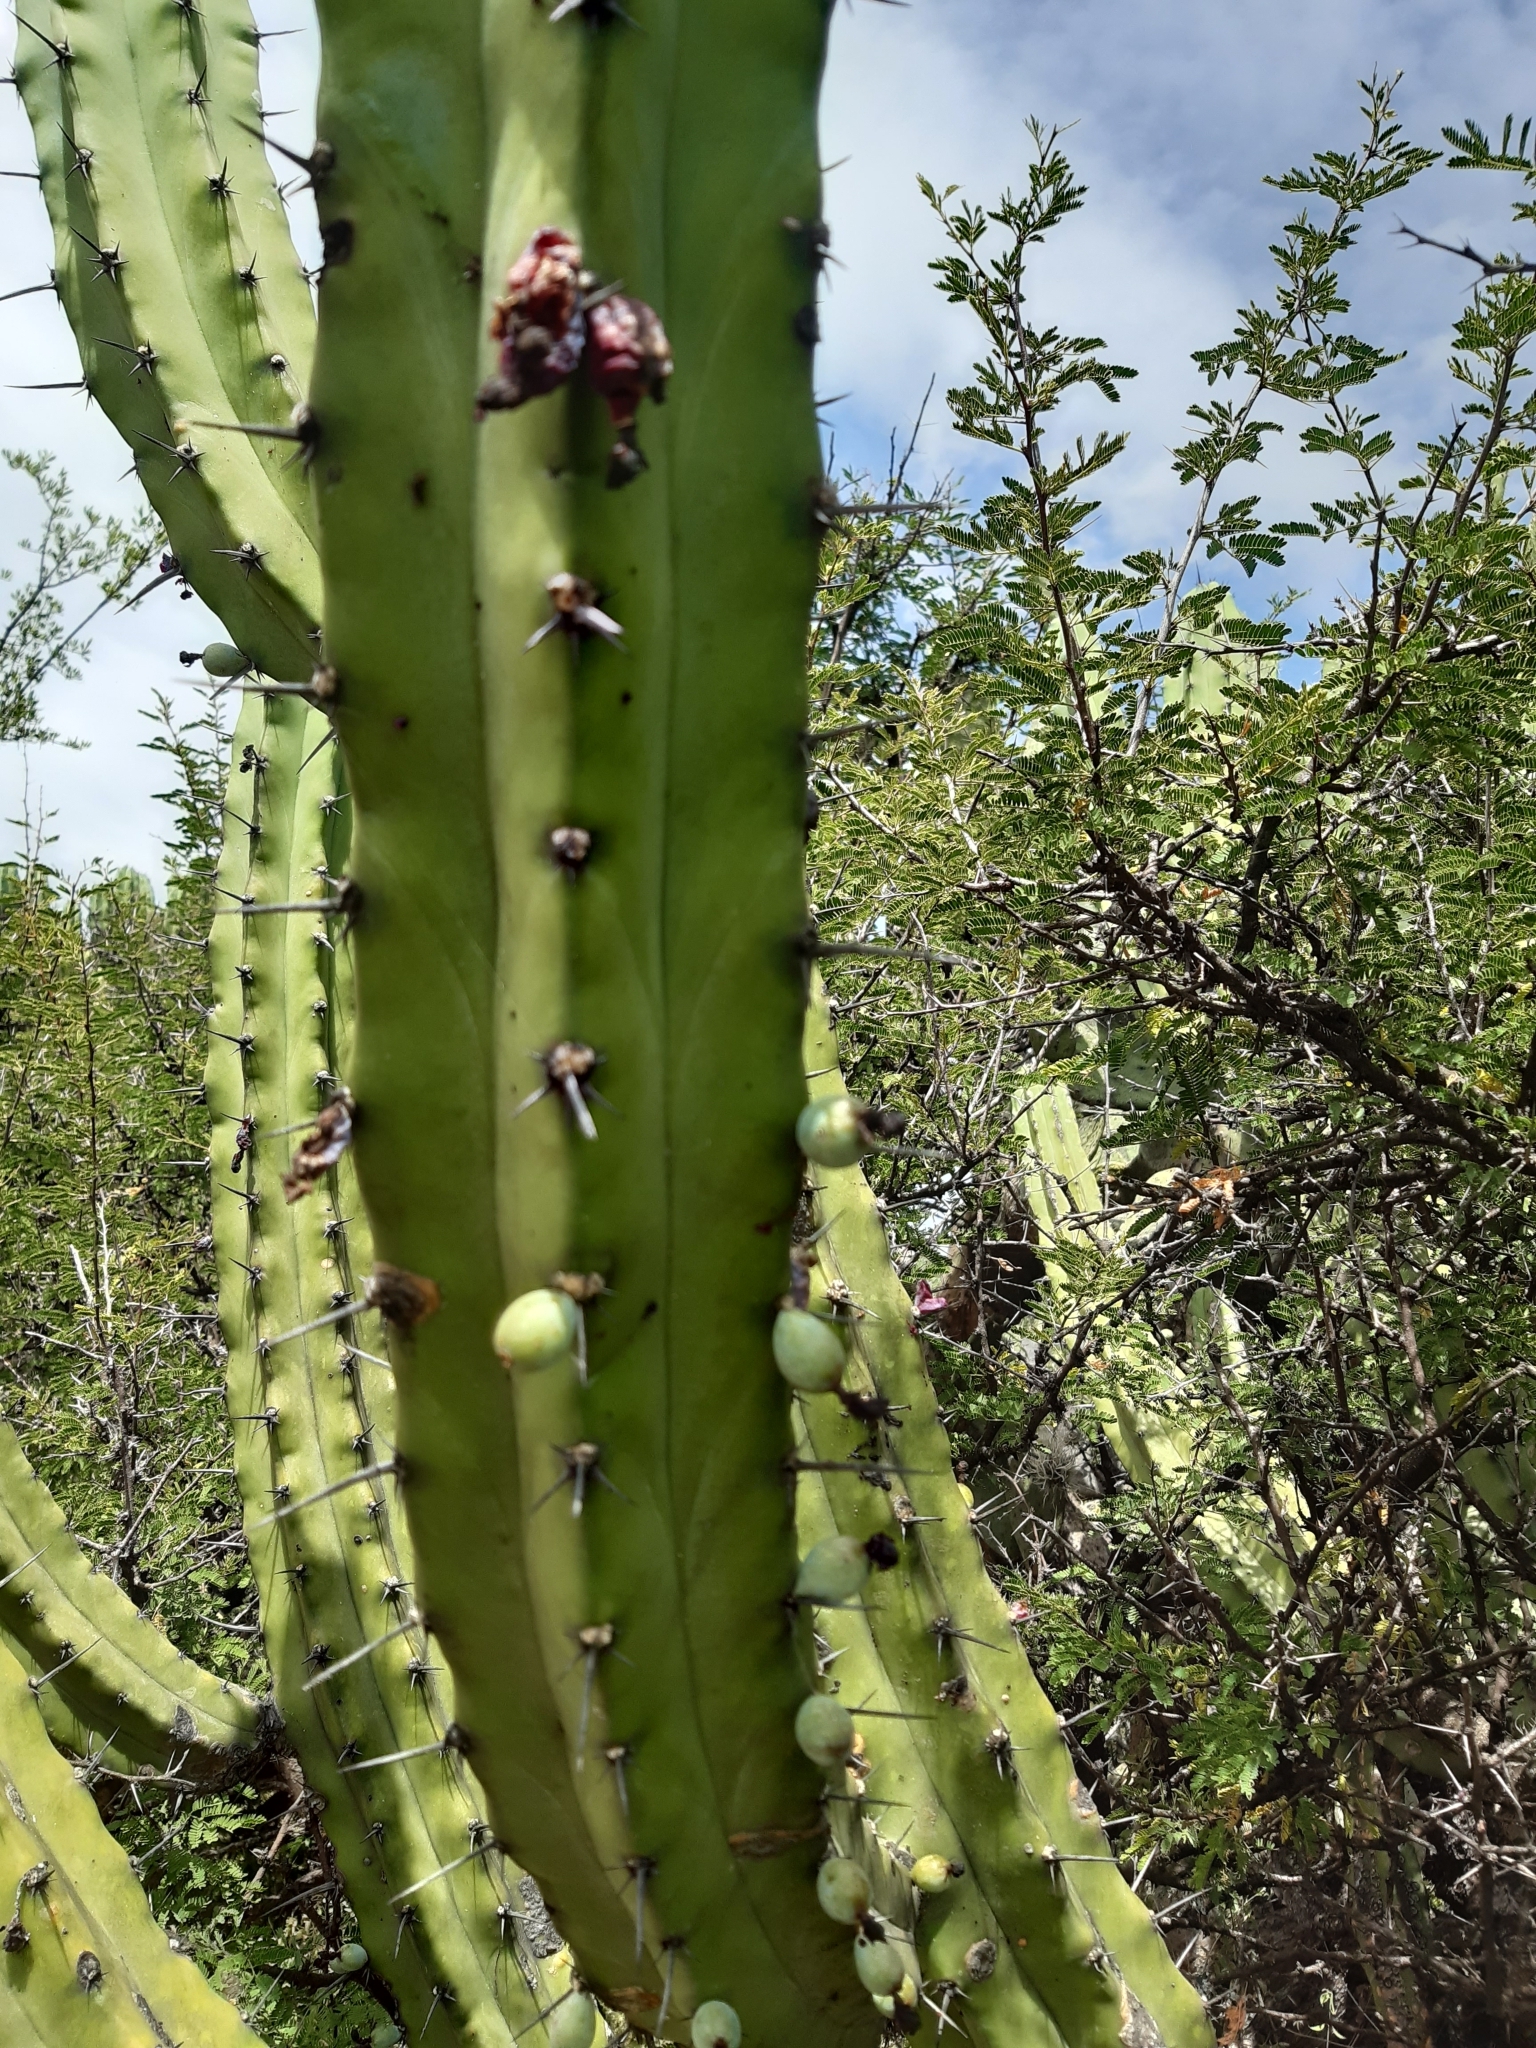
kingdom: Plantae
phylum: Tracheophyta
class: Magnoliopsida
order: Caryophyllales
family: Cactaceae
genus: Myrtillocactus
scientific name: Myrtillocactus geometrizans
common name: Bilberry cactus
